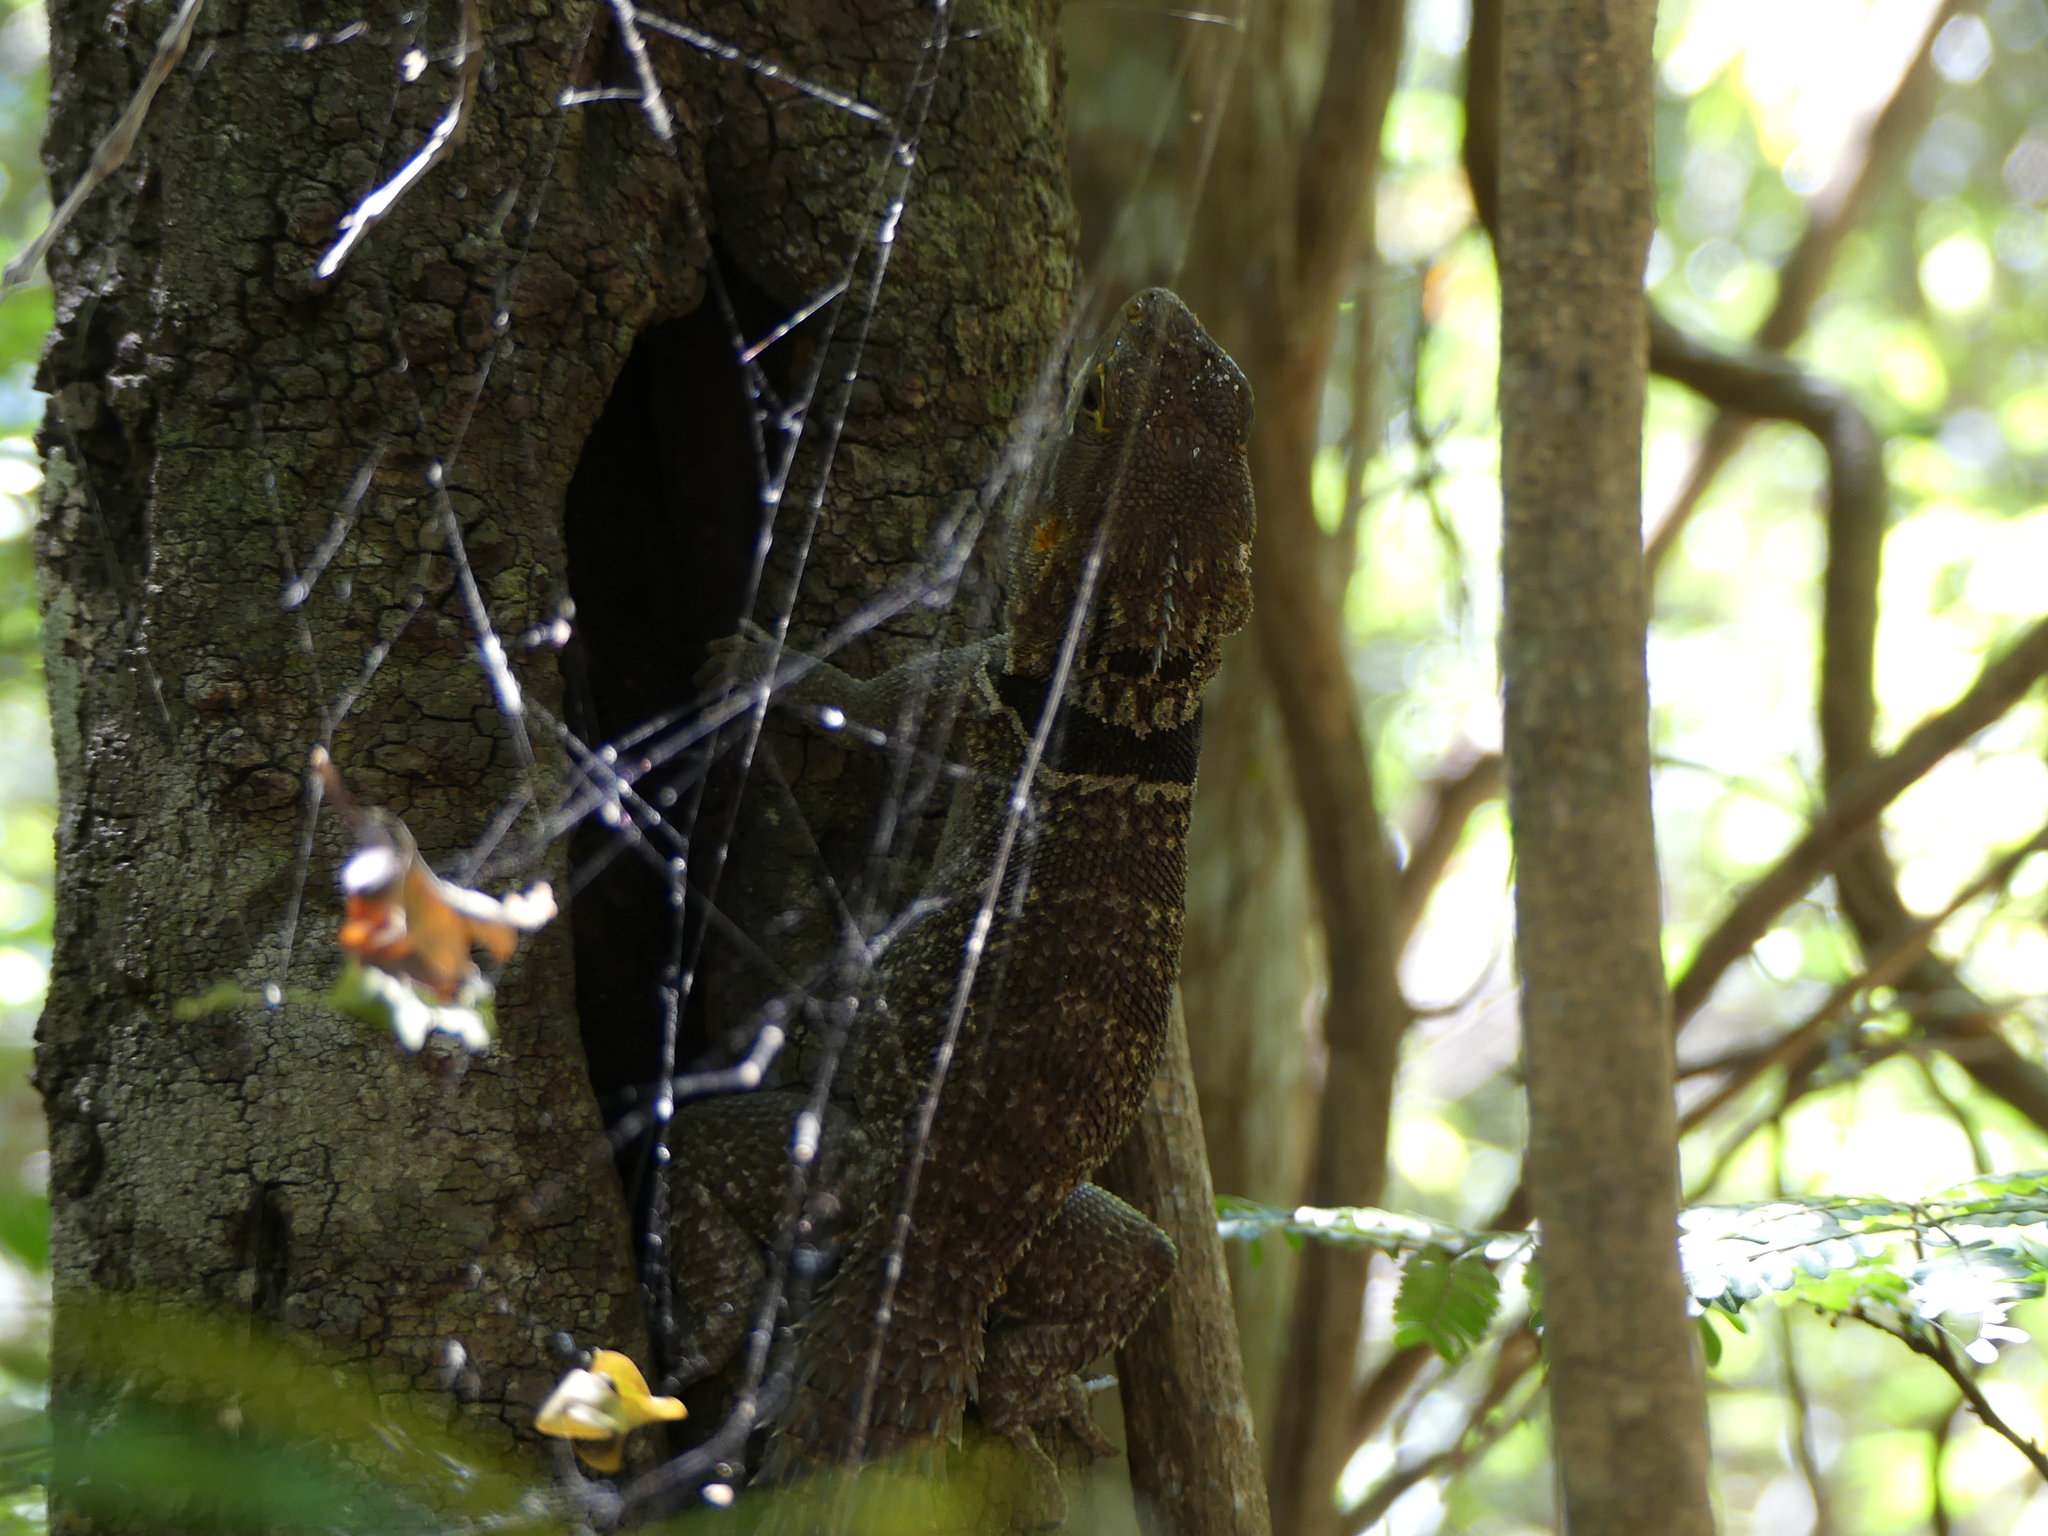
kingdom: Animalia
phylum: Chordata
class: Squamata
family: Opluridae
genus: Oplurus
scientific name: Oplurus cuvieri
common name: Cuvier's madagascar swift
